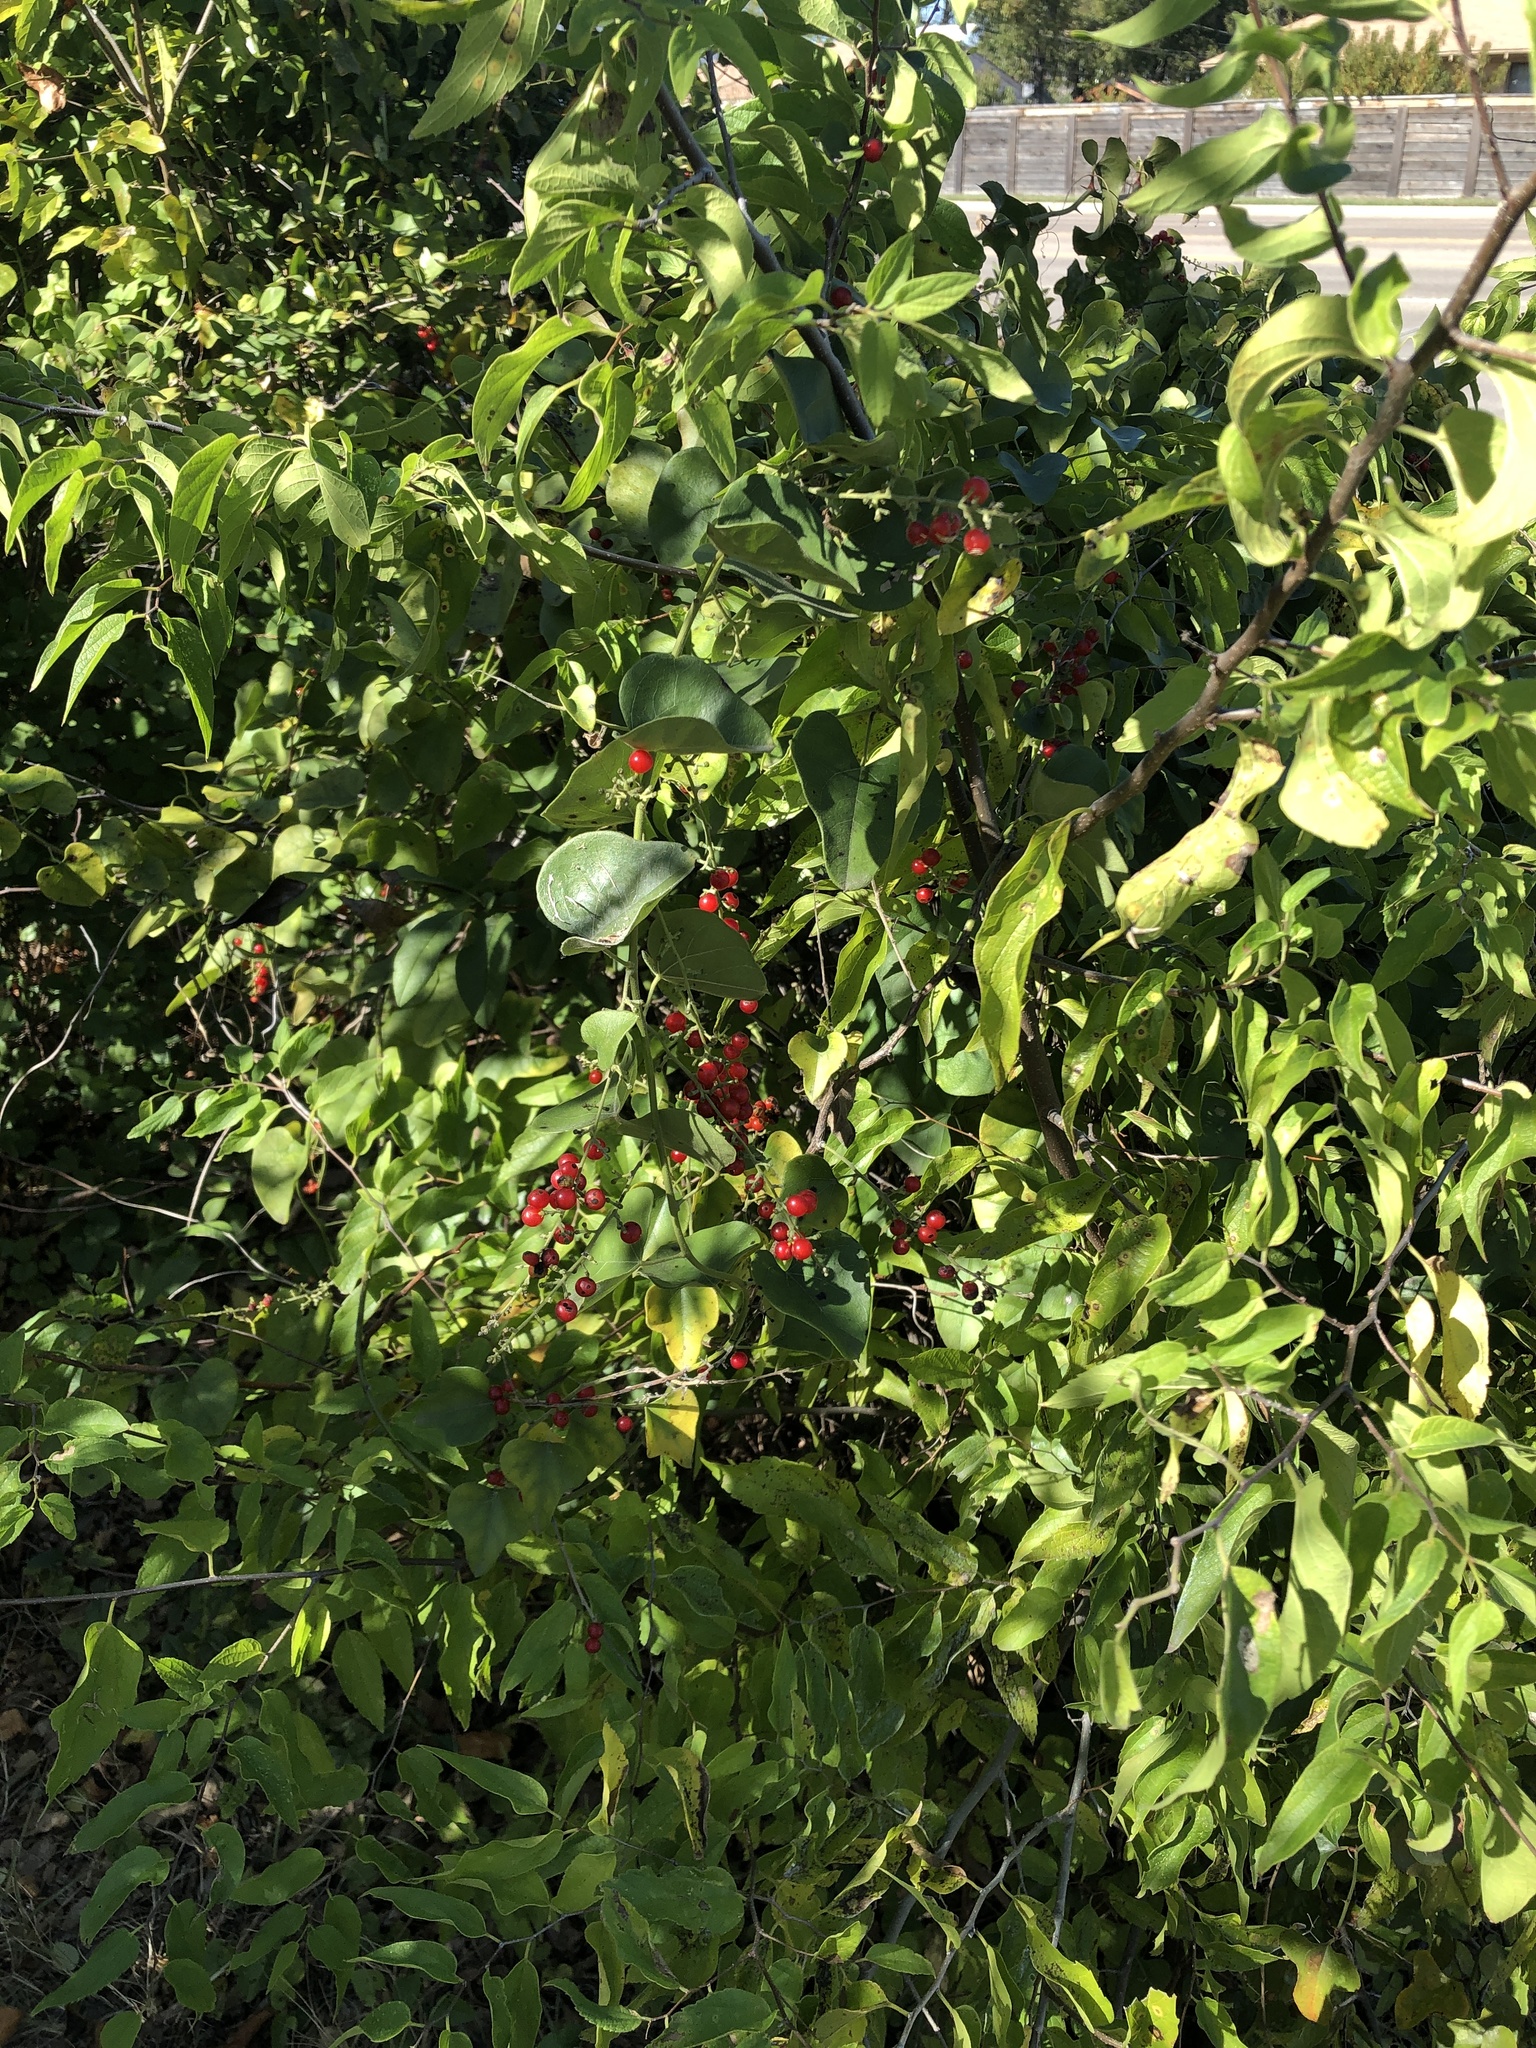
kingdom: Plantae
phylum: Tracheophyta
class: Magnoliopsida
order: Ranunculales
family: Menispermaceae
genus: Cocculus
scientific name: Cocculus carolinus
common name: Carolina moonseed
